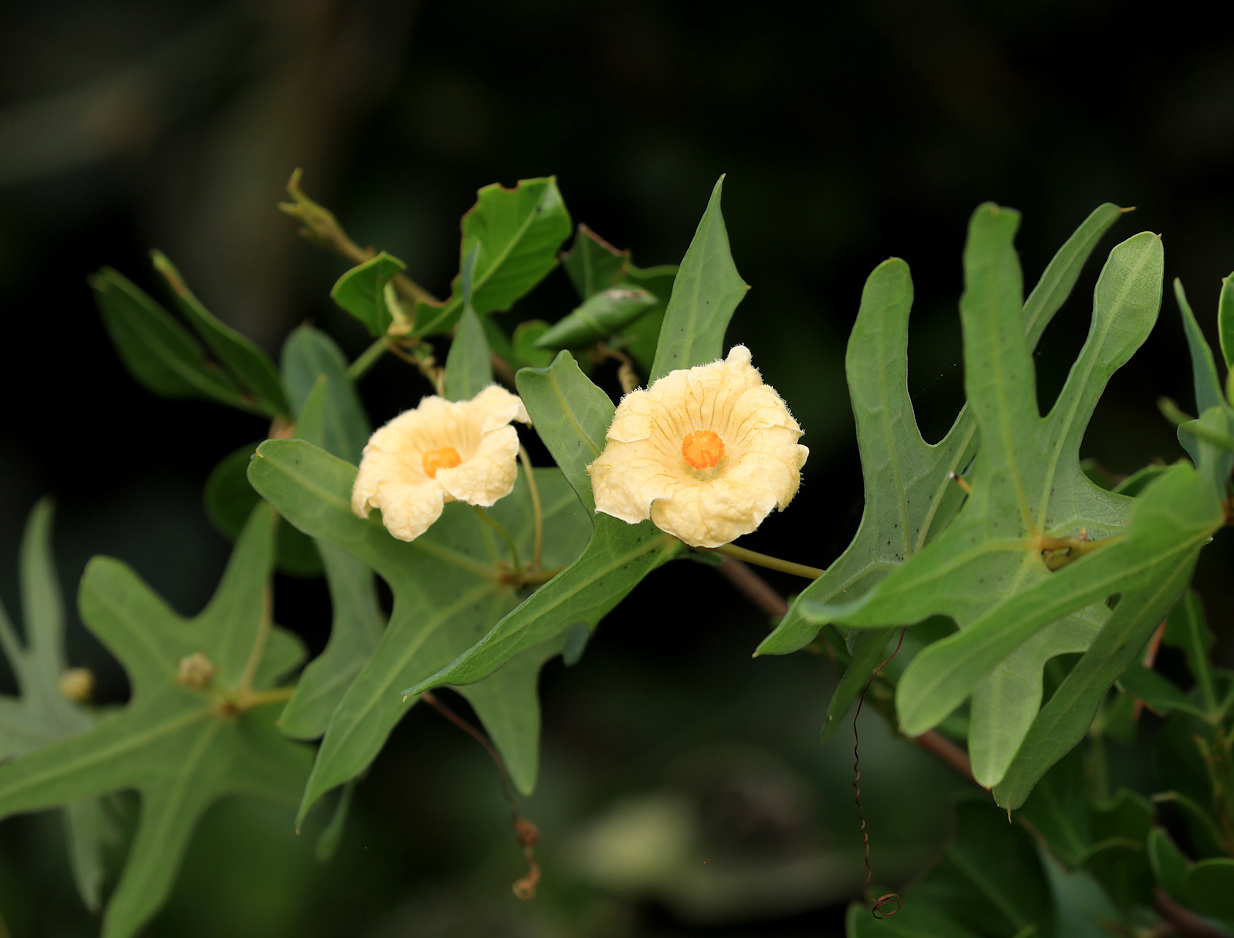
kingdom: Plantae
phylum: Tracheophyta
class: Magnoliopsida
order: Cucurbitales
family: Cucurbitaceae
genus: Coccinia
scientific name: Coccinia quinqueloba
